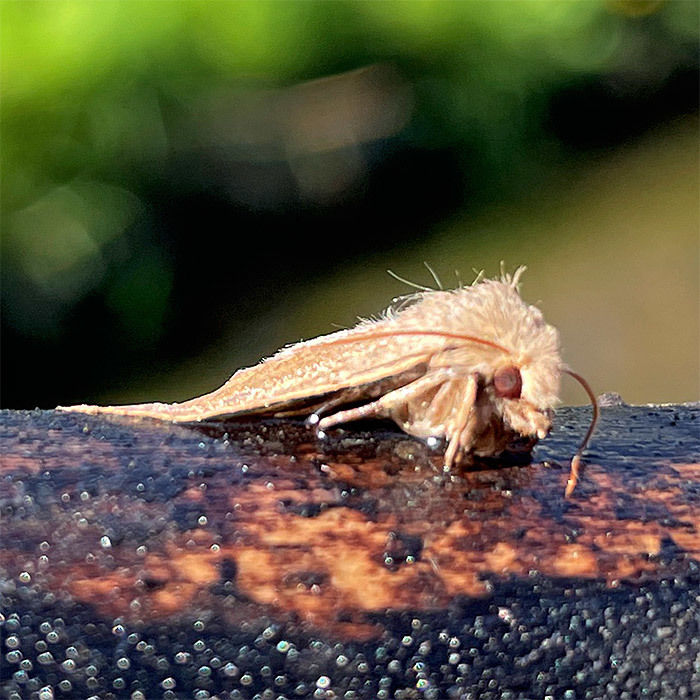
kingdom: Animalia
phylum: Arthropoda
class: Insecta
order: Lepidoptera
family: Noctuidae
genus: Orthosia
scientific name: Orthosia cruda
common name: Small quaker
